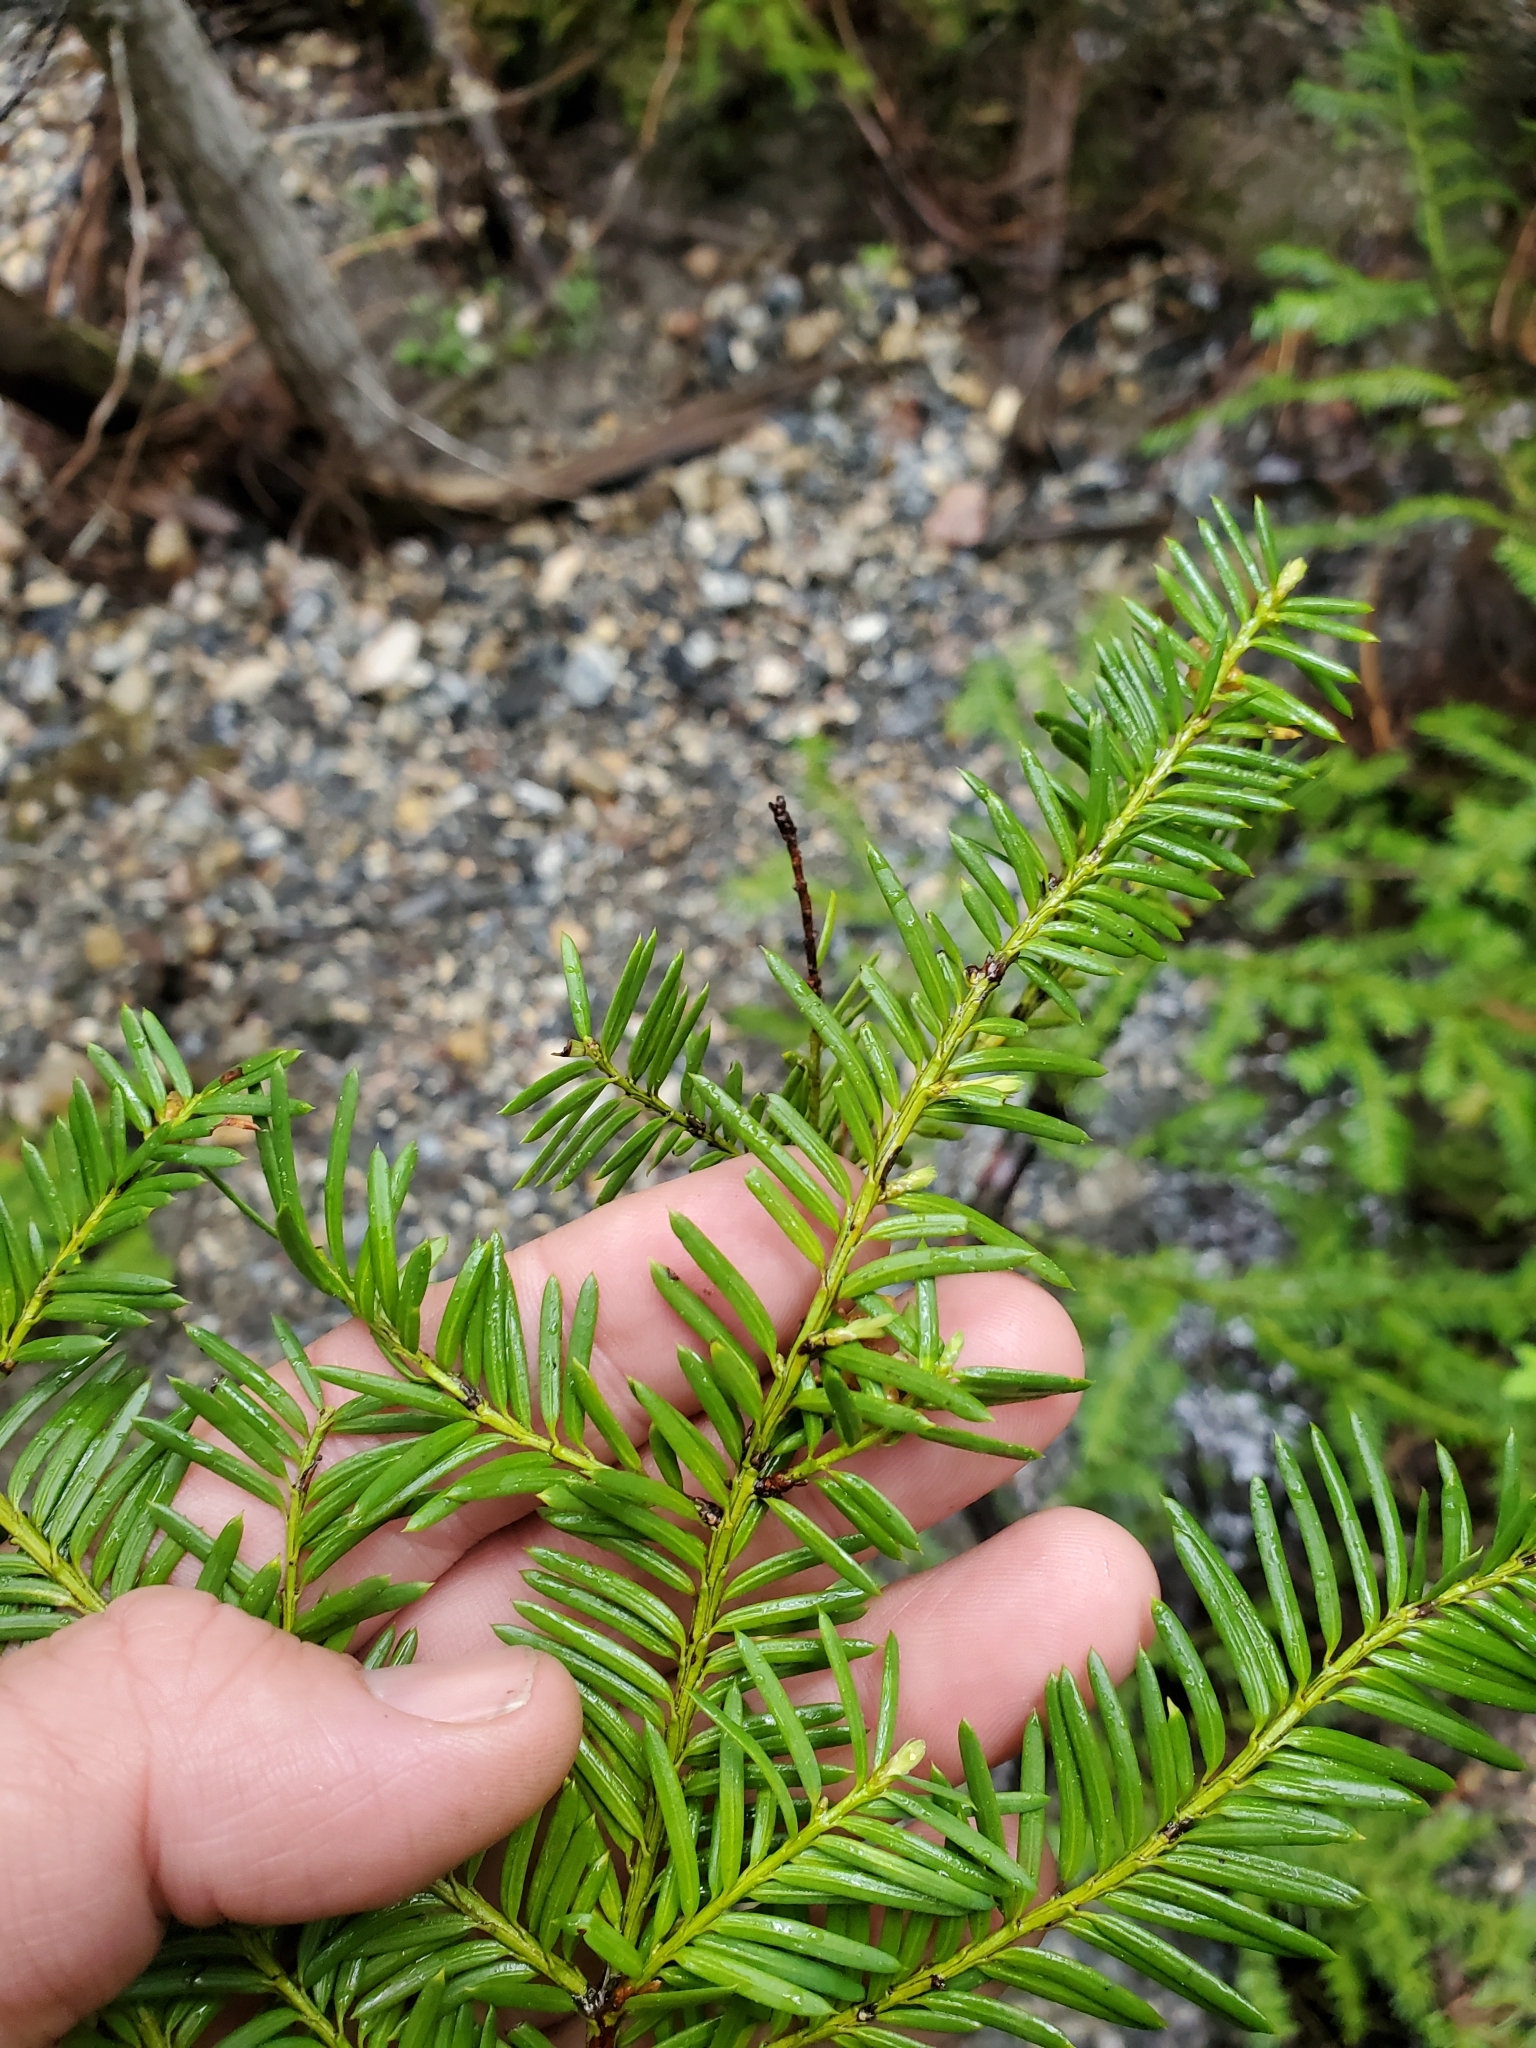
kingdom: Plantae
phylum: Tracheophyta
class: Pinopsida
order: Pinales
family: Taxaceae
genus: Taxus
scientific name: Taxus brevifolia
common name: Pacific yew
